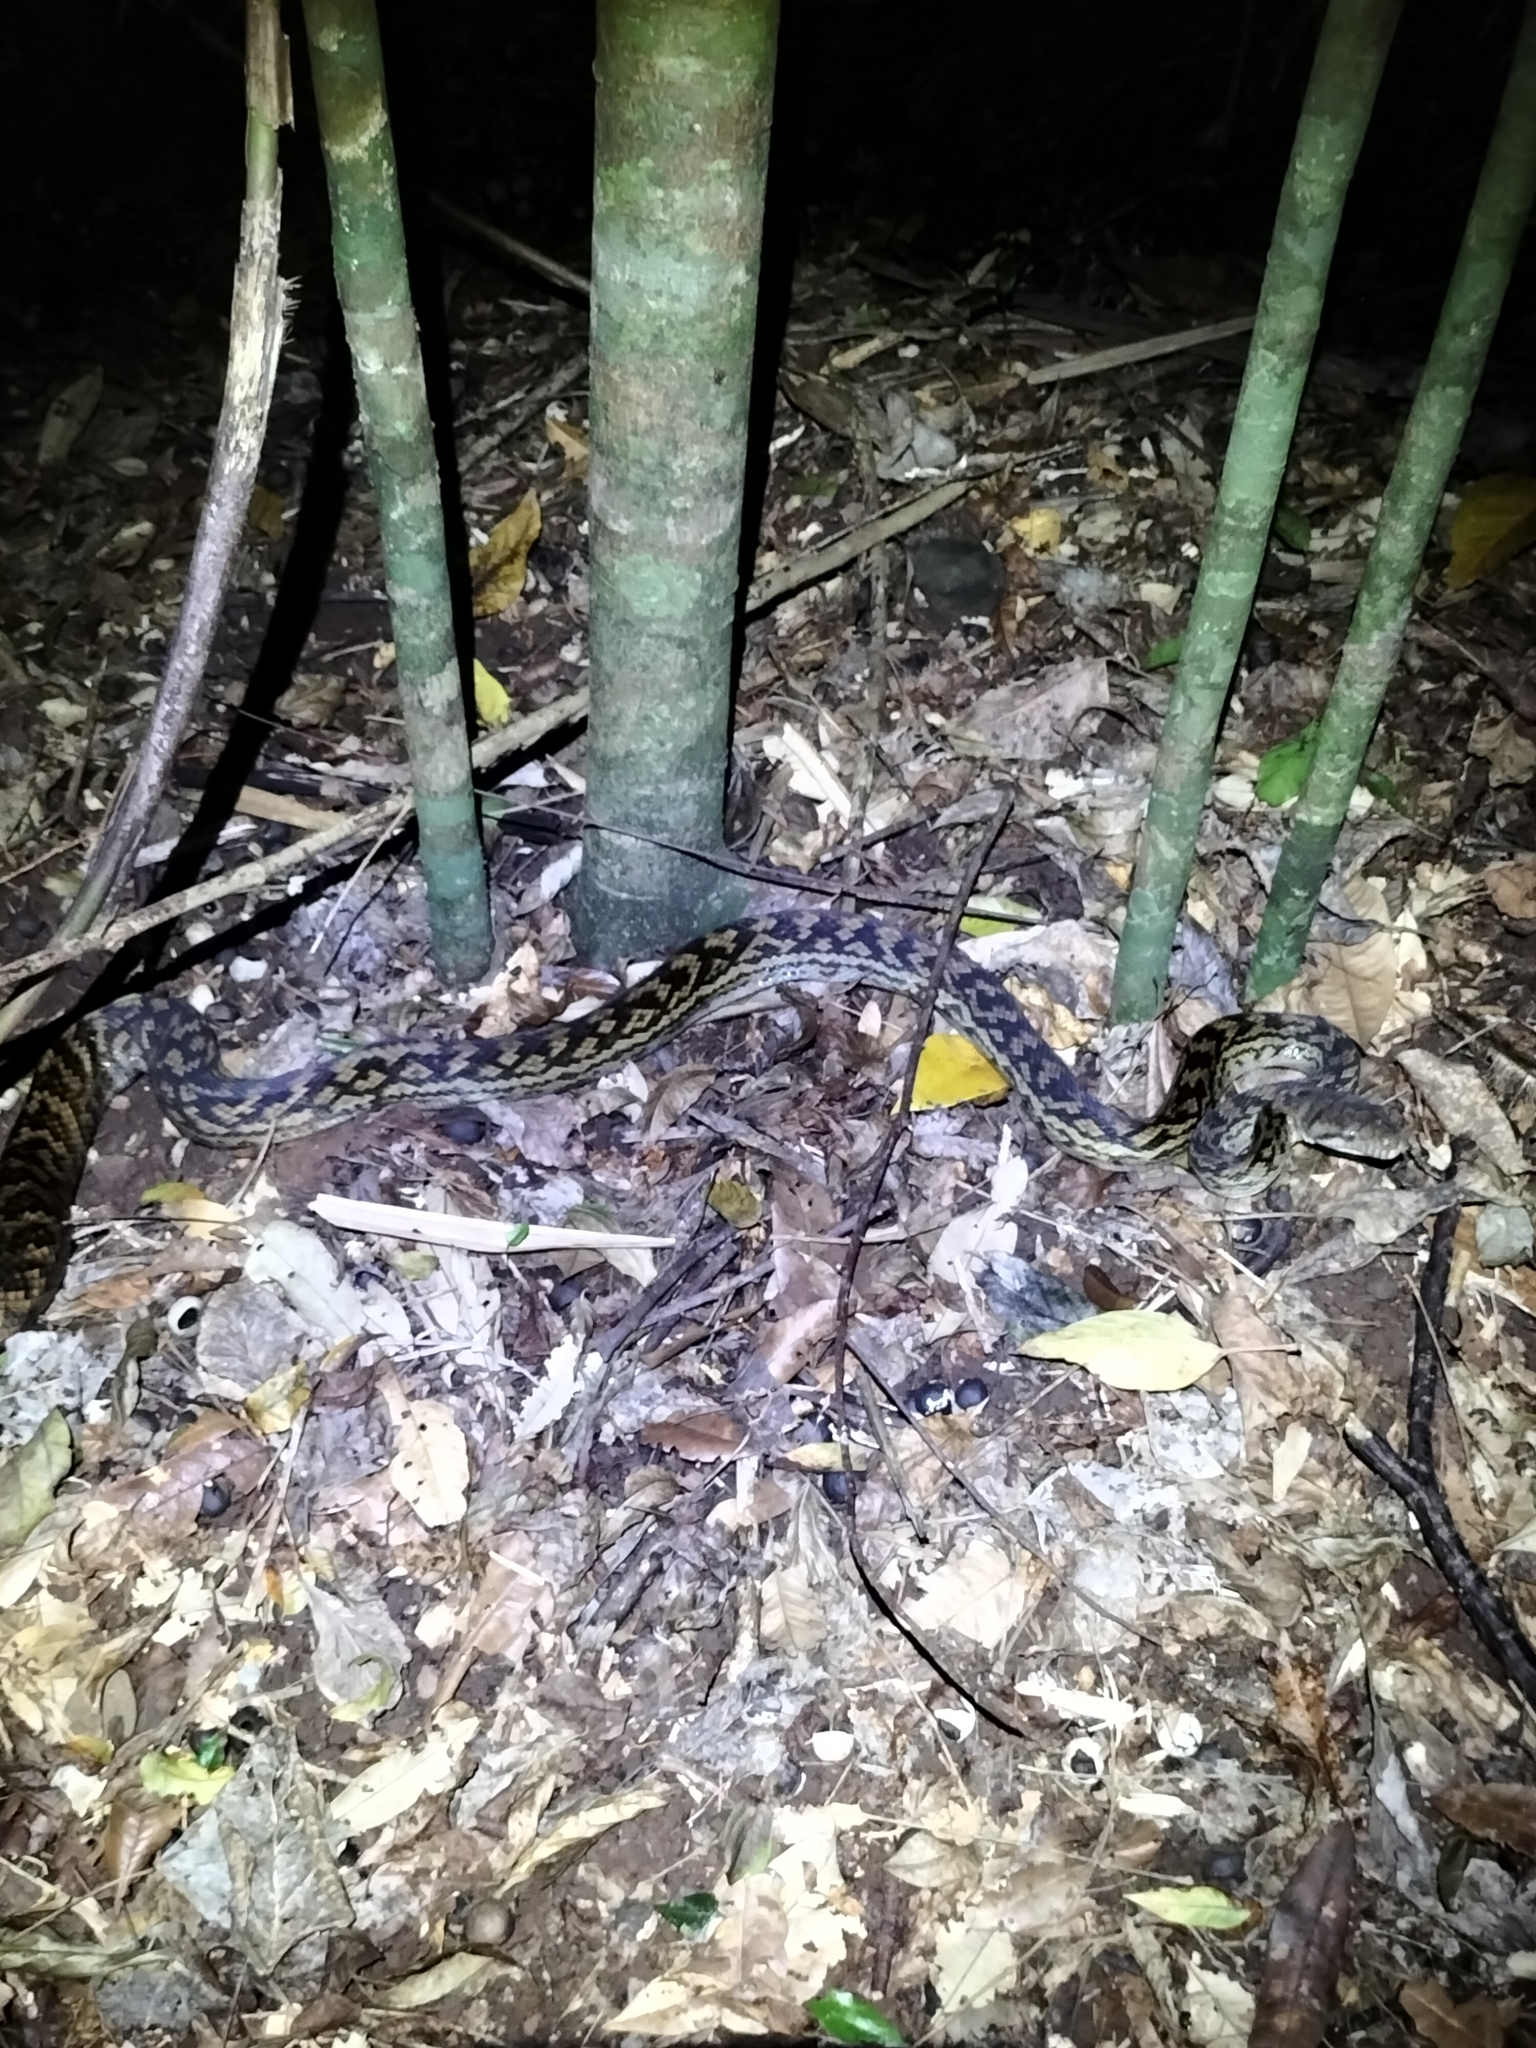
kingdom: Animalia
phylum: Chordata
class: Squamata
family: Pythonidae
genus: Simalia
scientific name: Simalia kinghorni
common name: Scrub python
